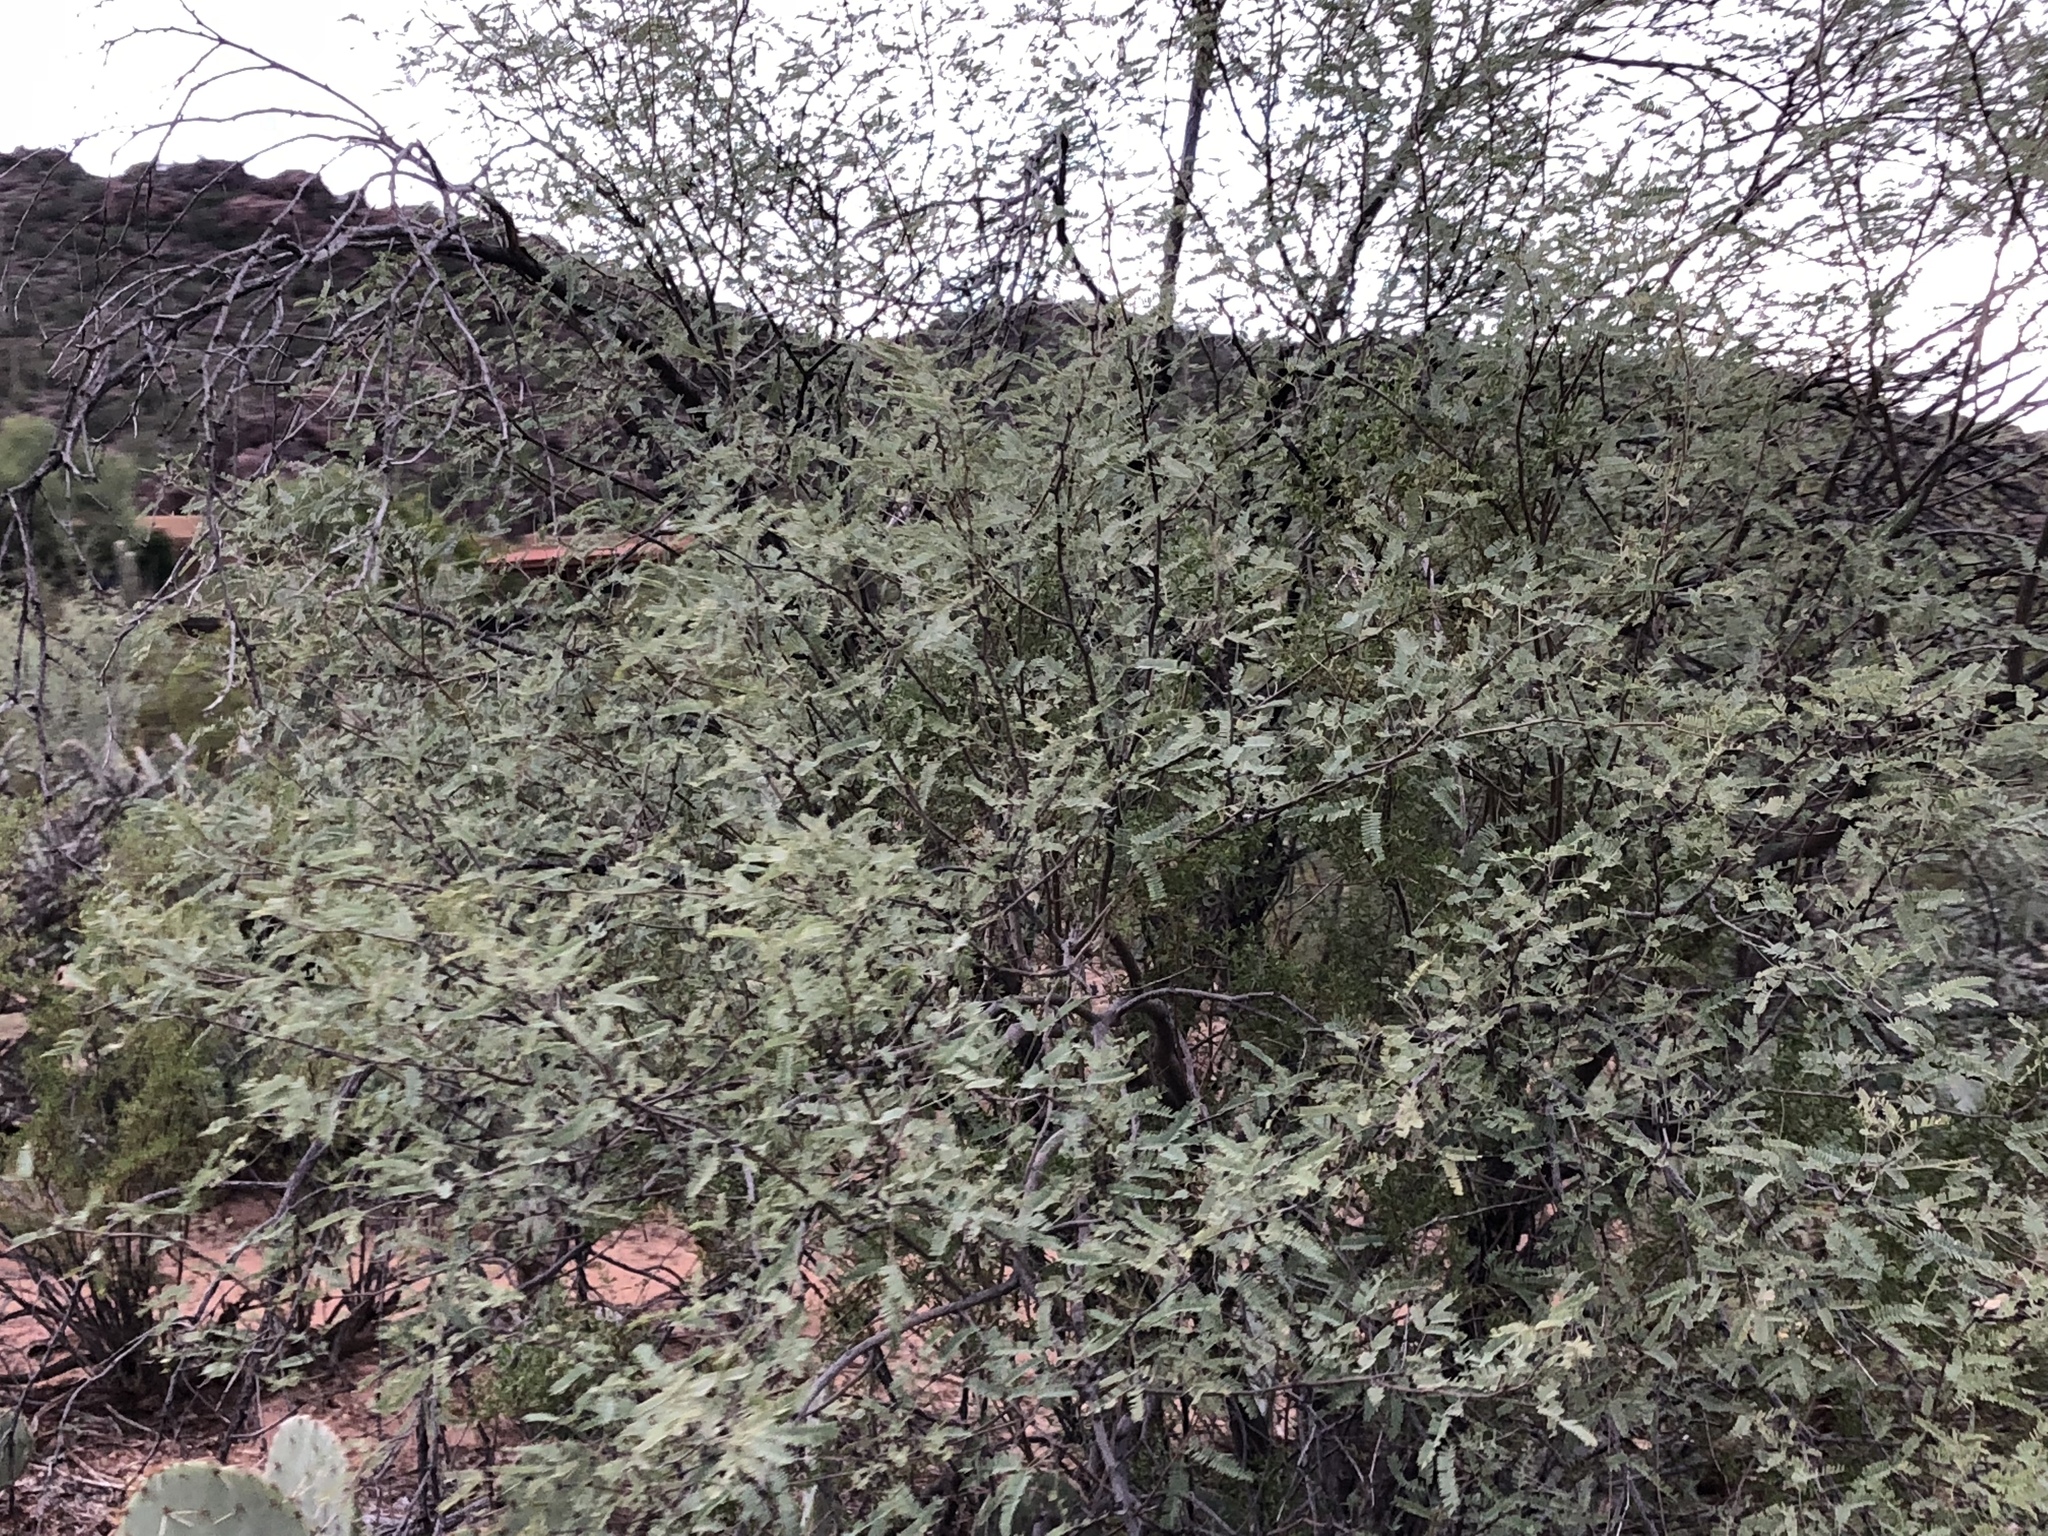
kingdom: Plantae
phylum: Tracheophyta
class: Magnoliopsida
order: Fabales
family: Fabaceae
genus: Prosopis
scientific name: Prosopis velutina
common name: Velvet mesquite
